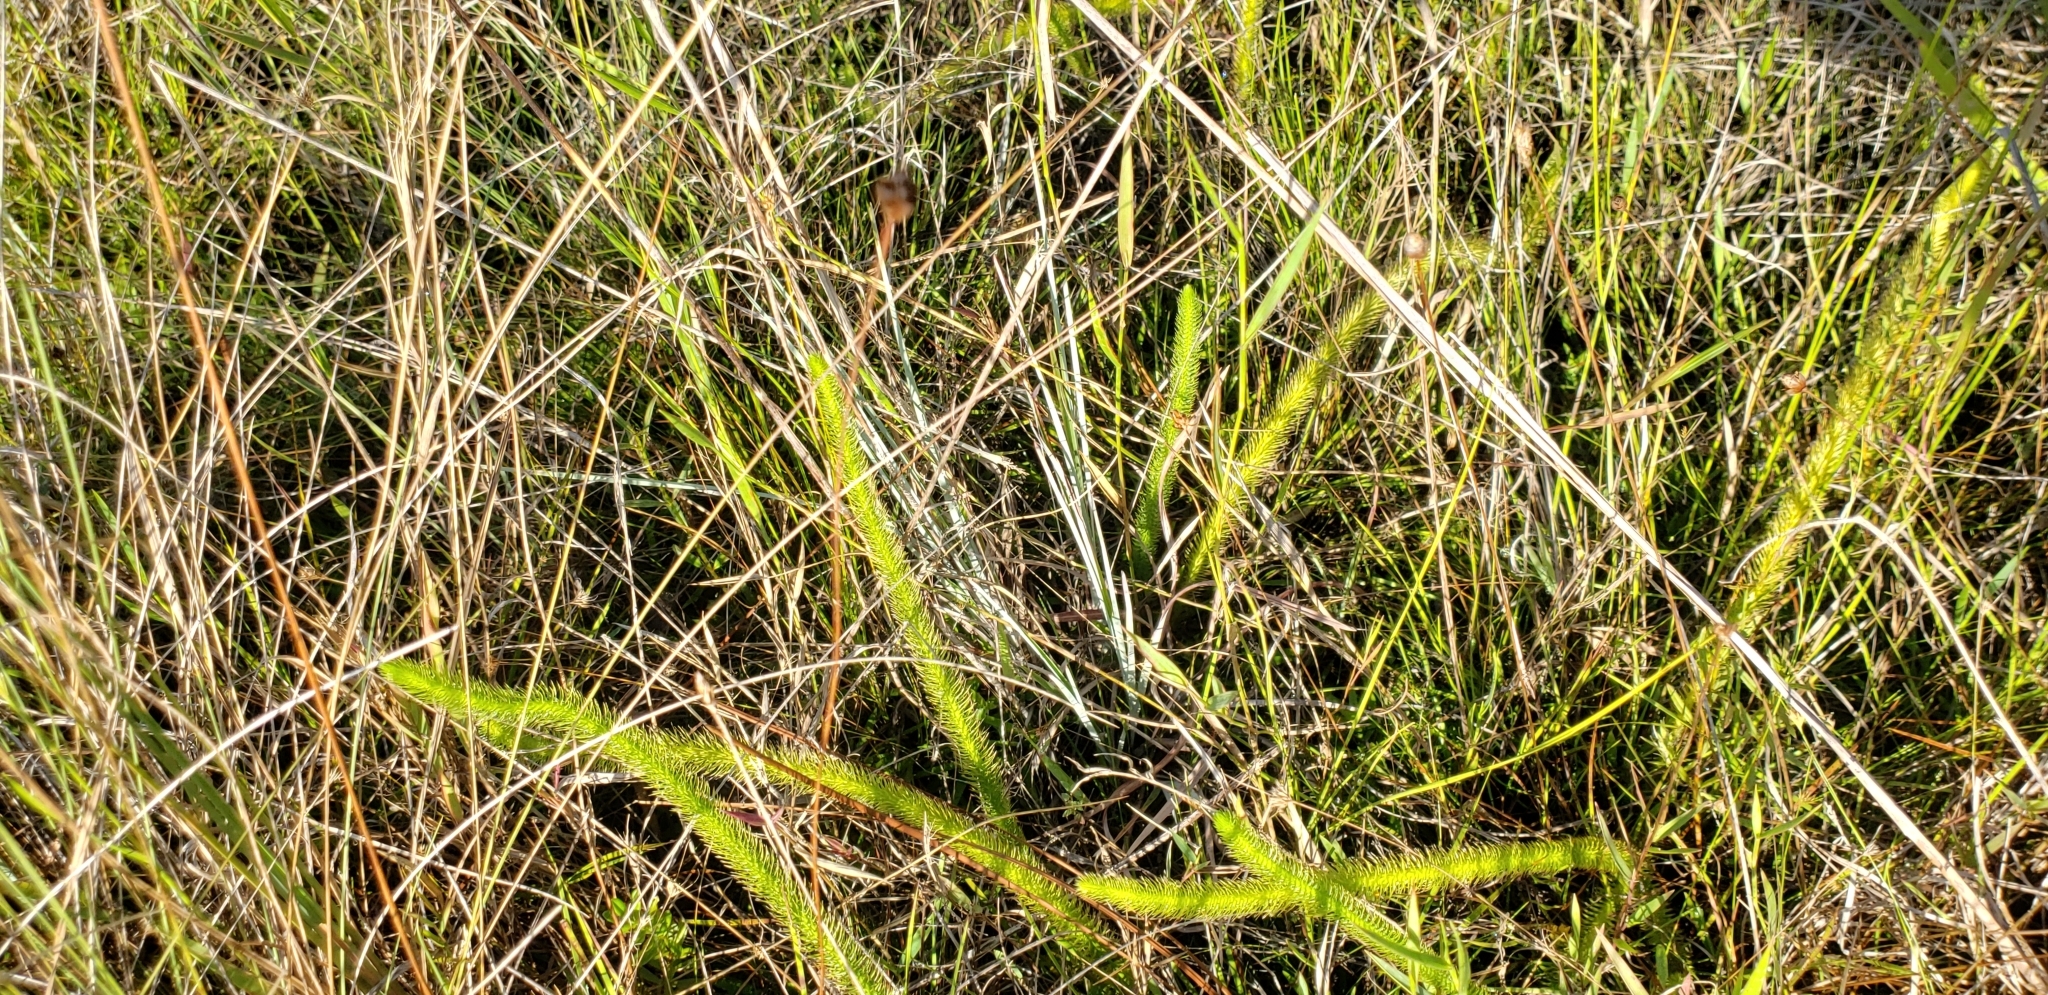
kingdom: Plantae
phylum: Tracheophyta
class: Lycopodiopsida
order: Lycopodiales
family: Lycopodiaceae
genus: Lycopodiella
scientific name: Lycopodiella alopecuroides
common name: Foxtail clubmoss
